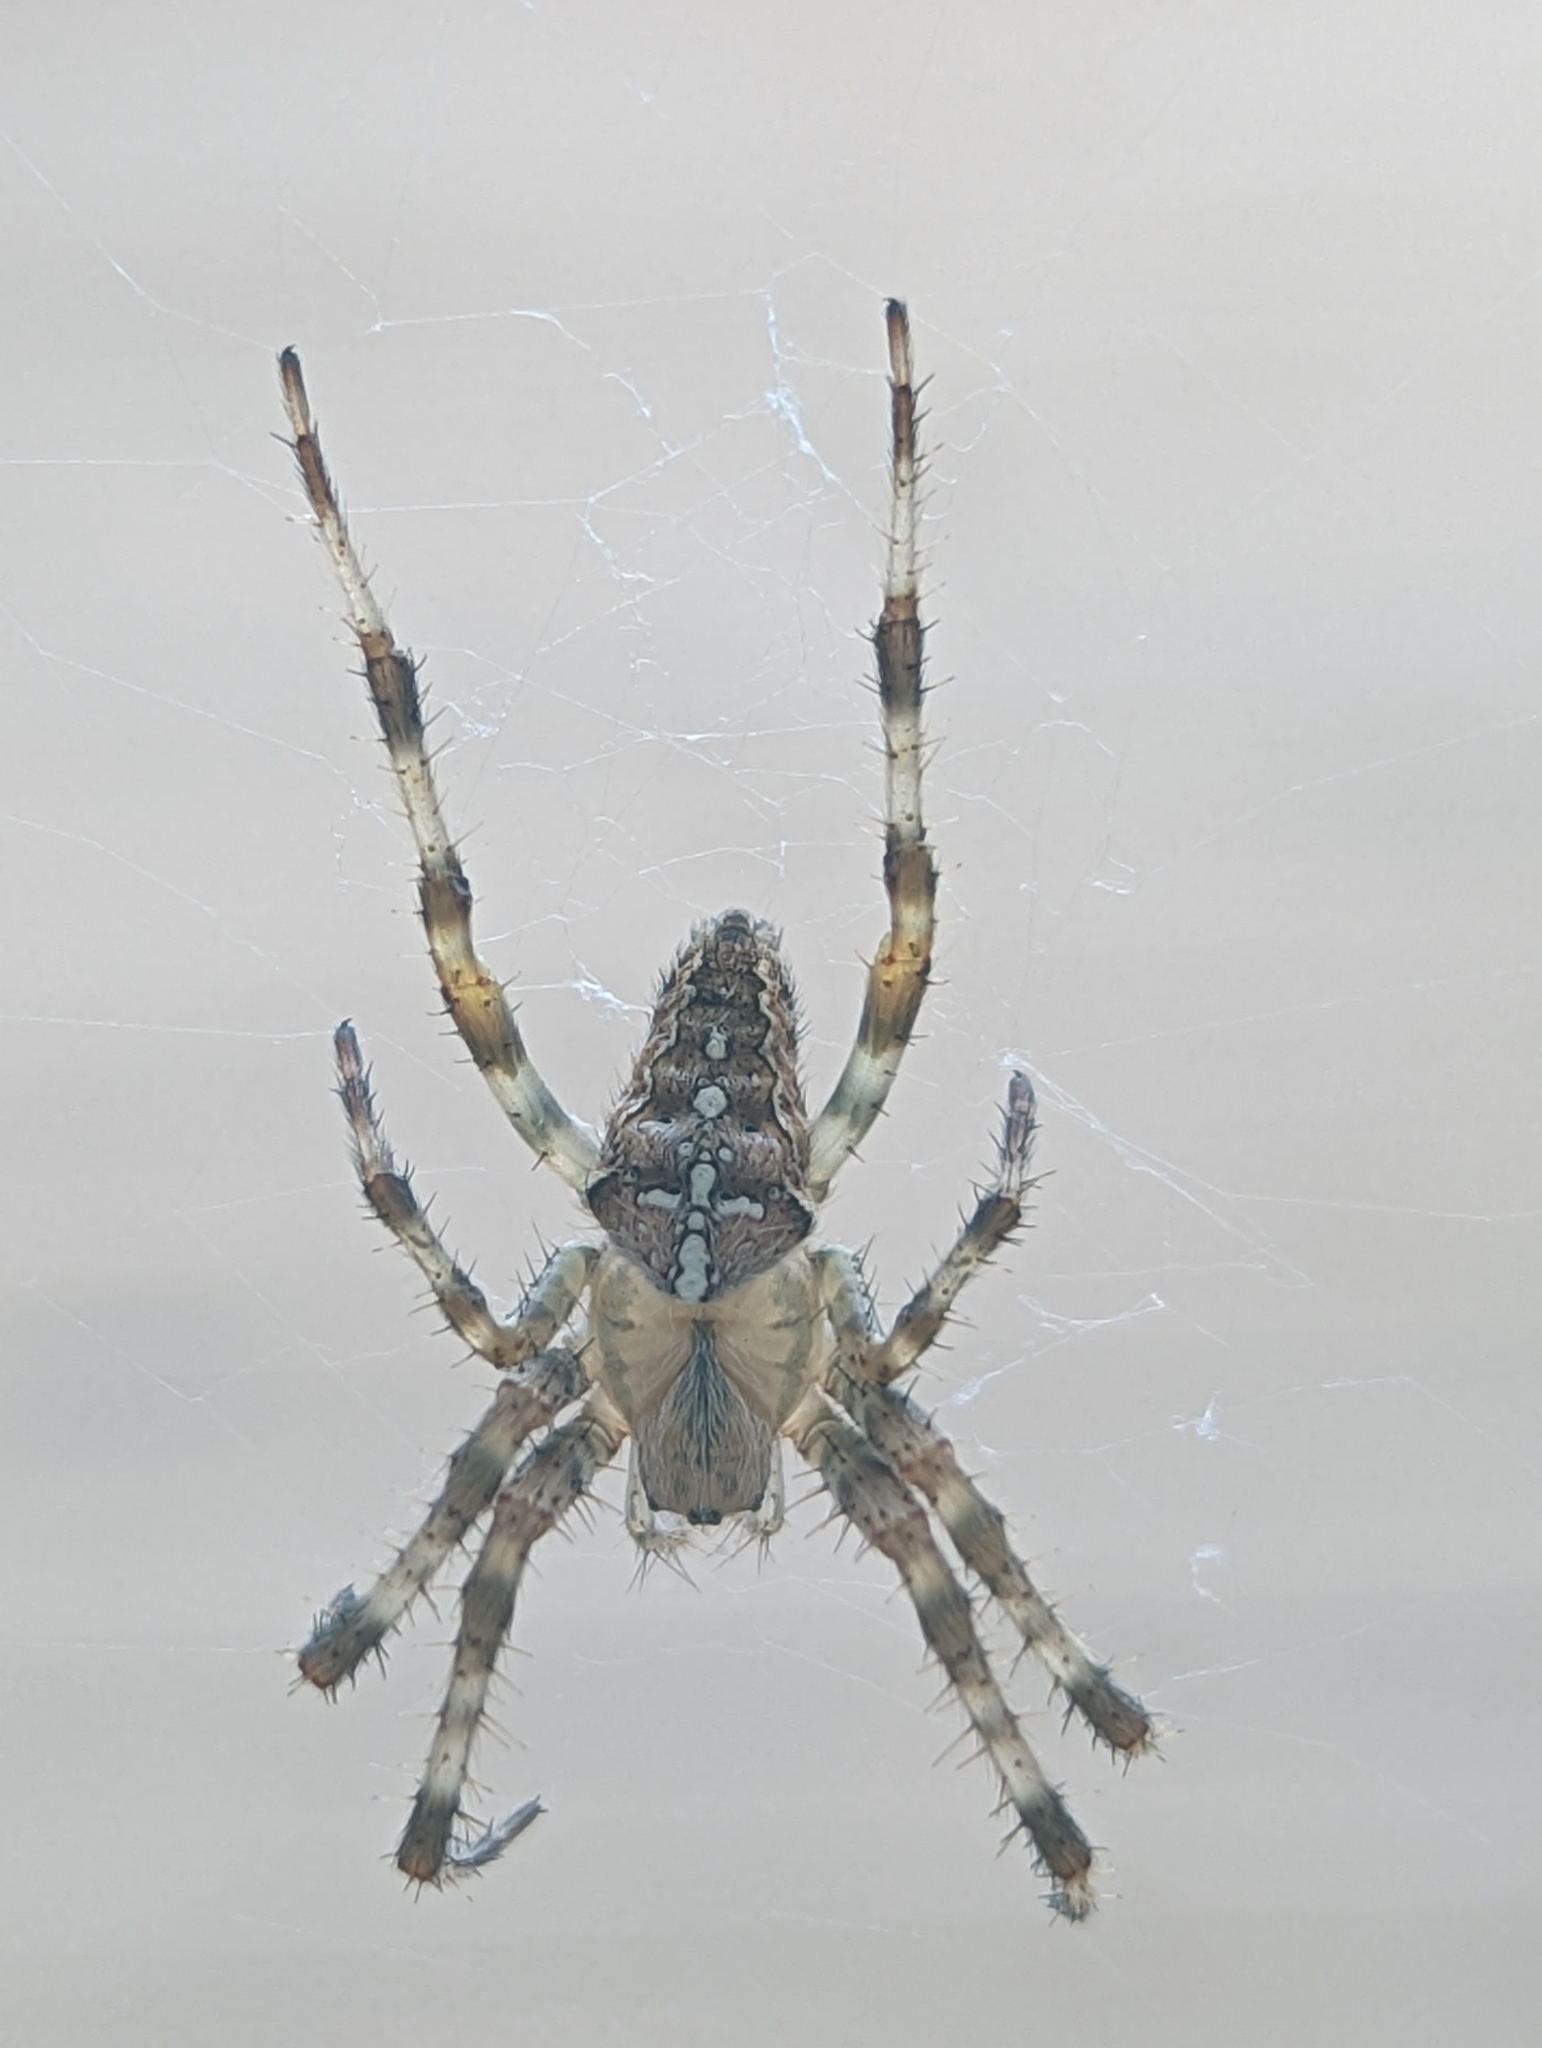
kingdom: Animalia
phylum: Arthropoda
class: Arachnida
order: Araneae
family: Araneidae
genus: Araneus
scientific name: Araneus diadematus
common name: Cross orbweaver
